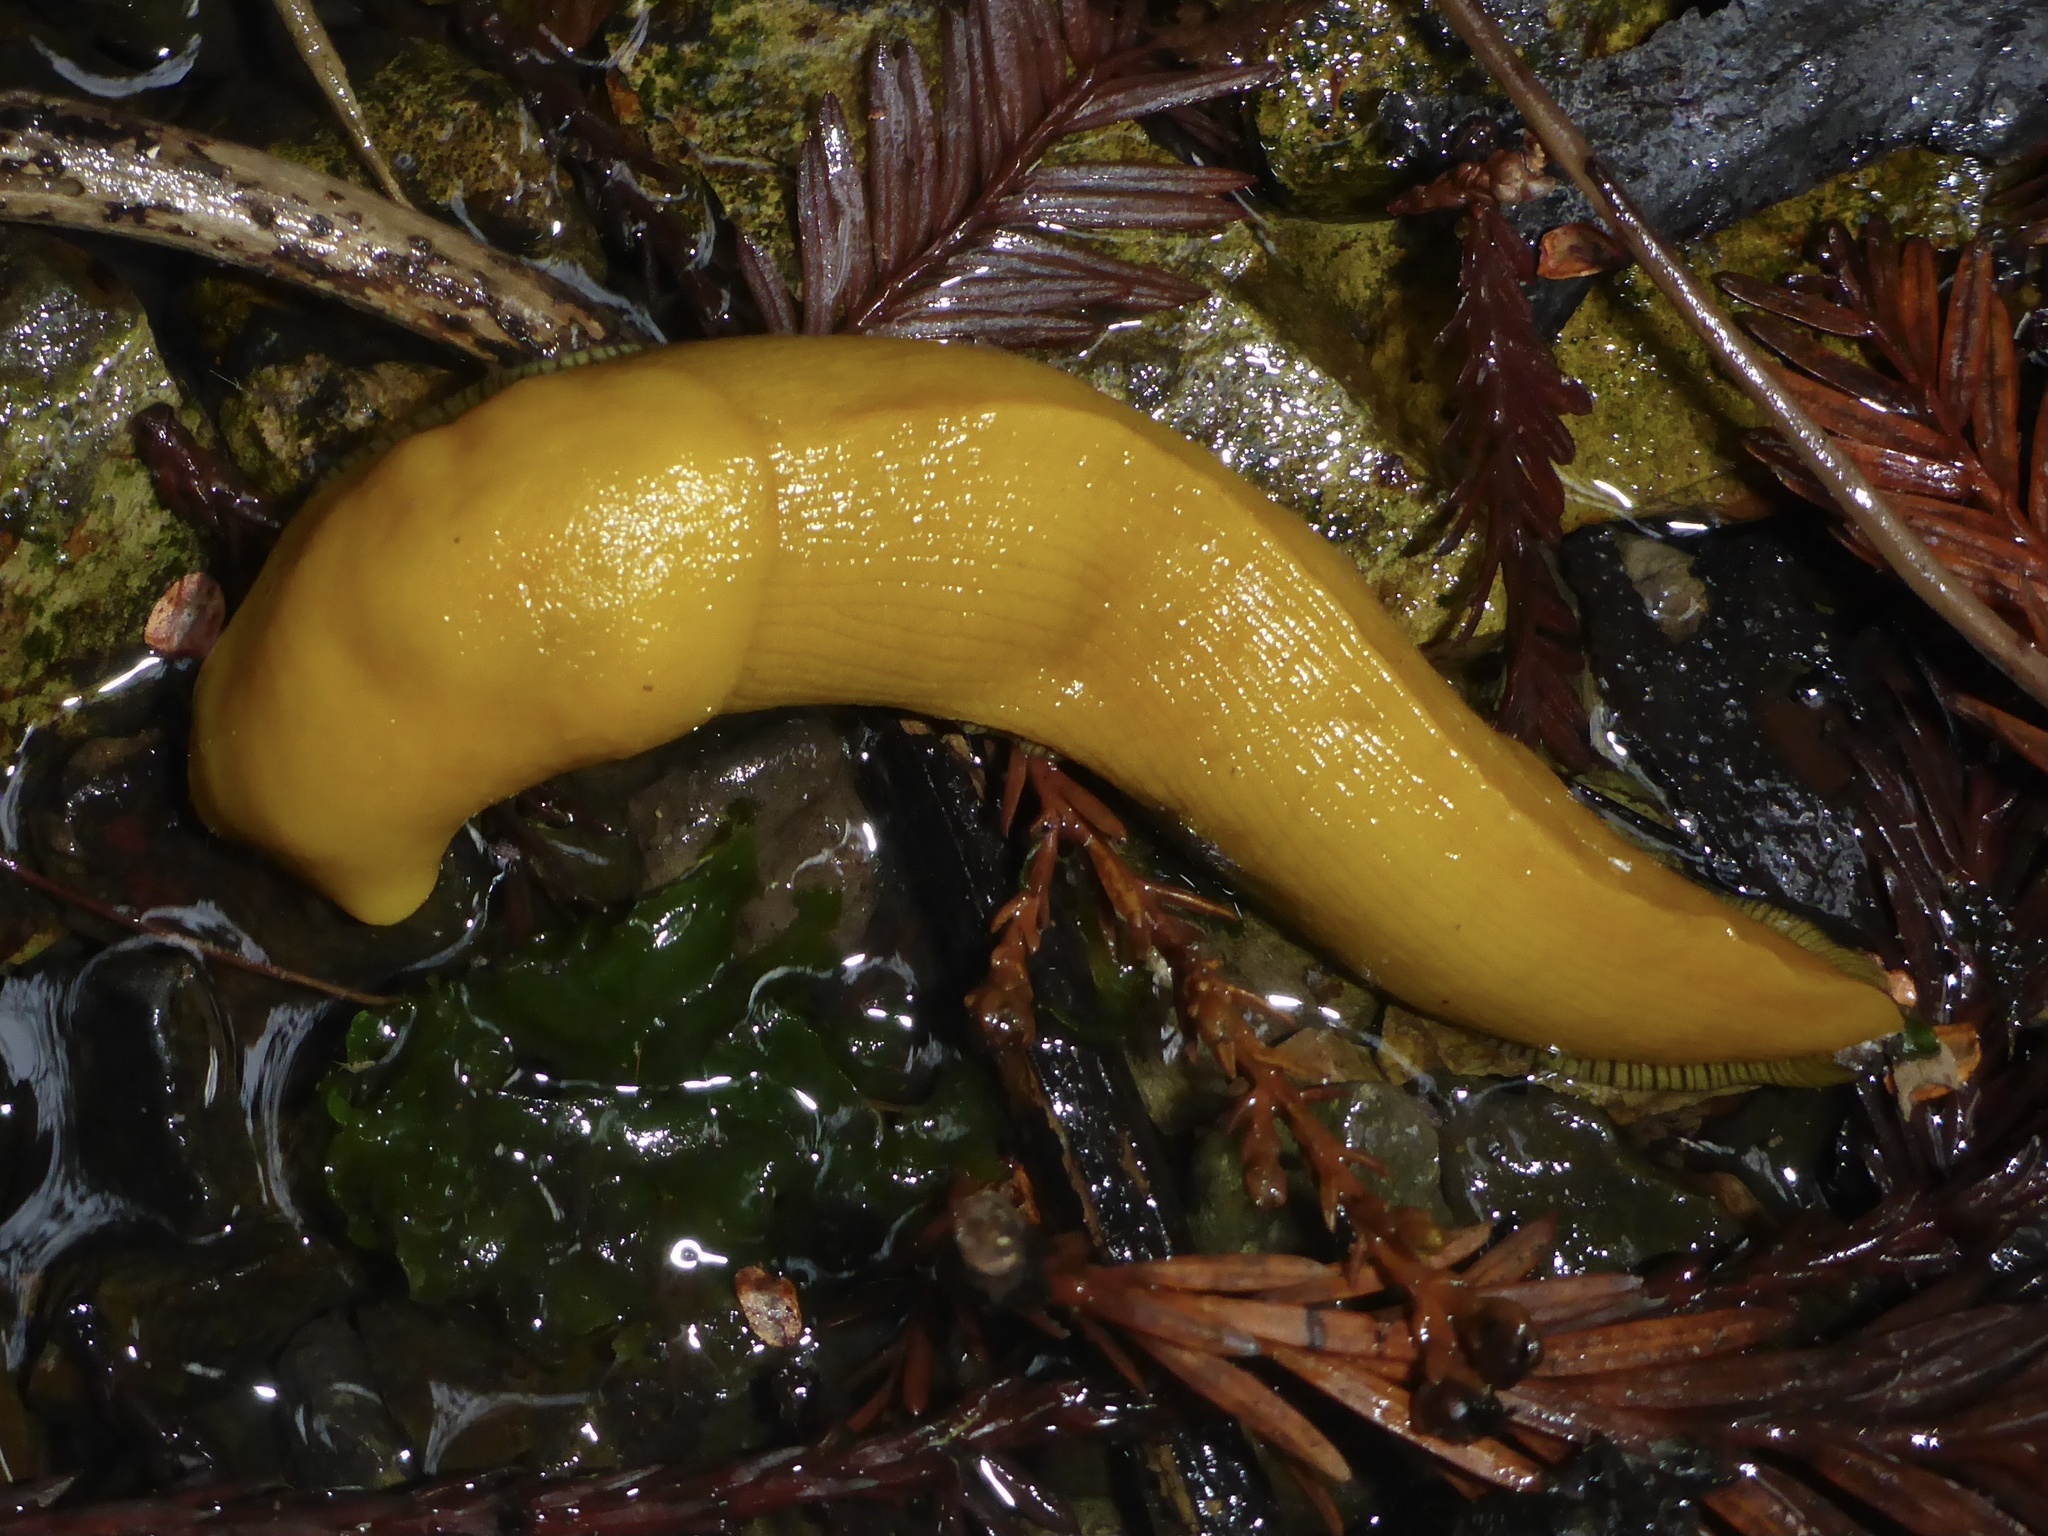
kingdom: Animalia
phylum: Mollusca
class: Gastropoda
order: Stylommatophora
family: Ariolimacidae
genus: Ariolimax
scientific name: Ariolimax californicus
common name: California banana slug
